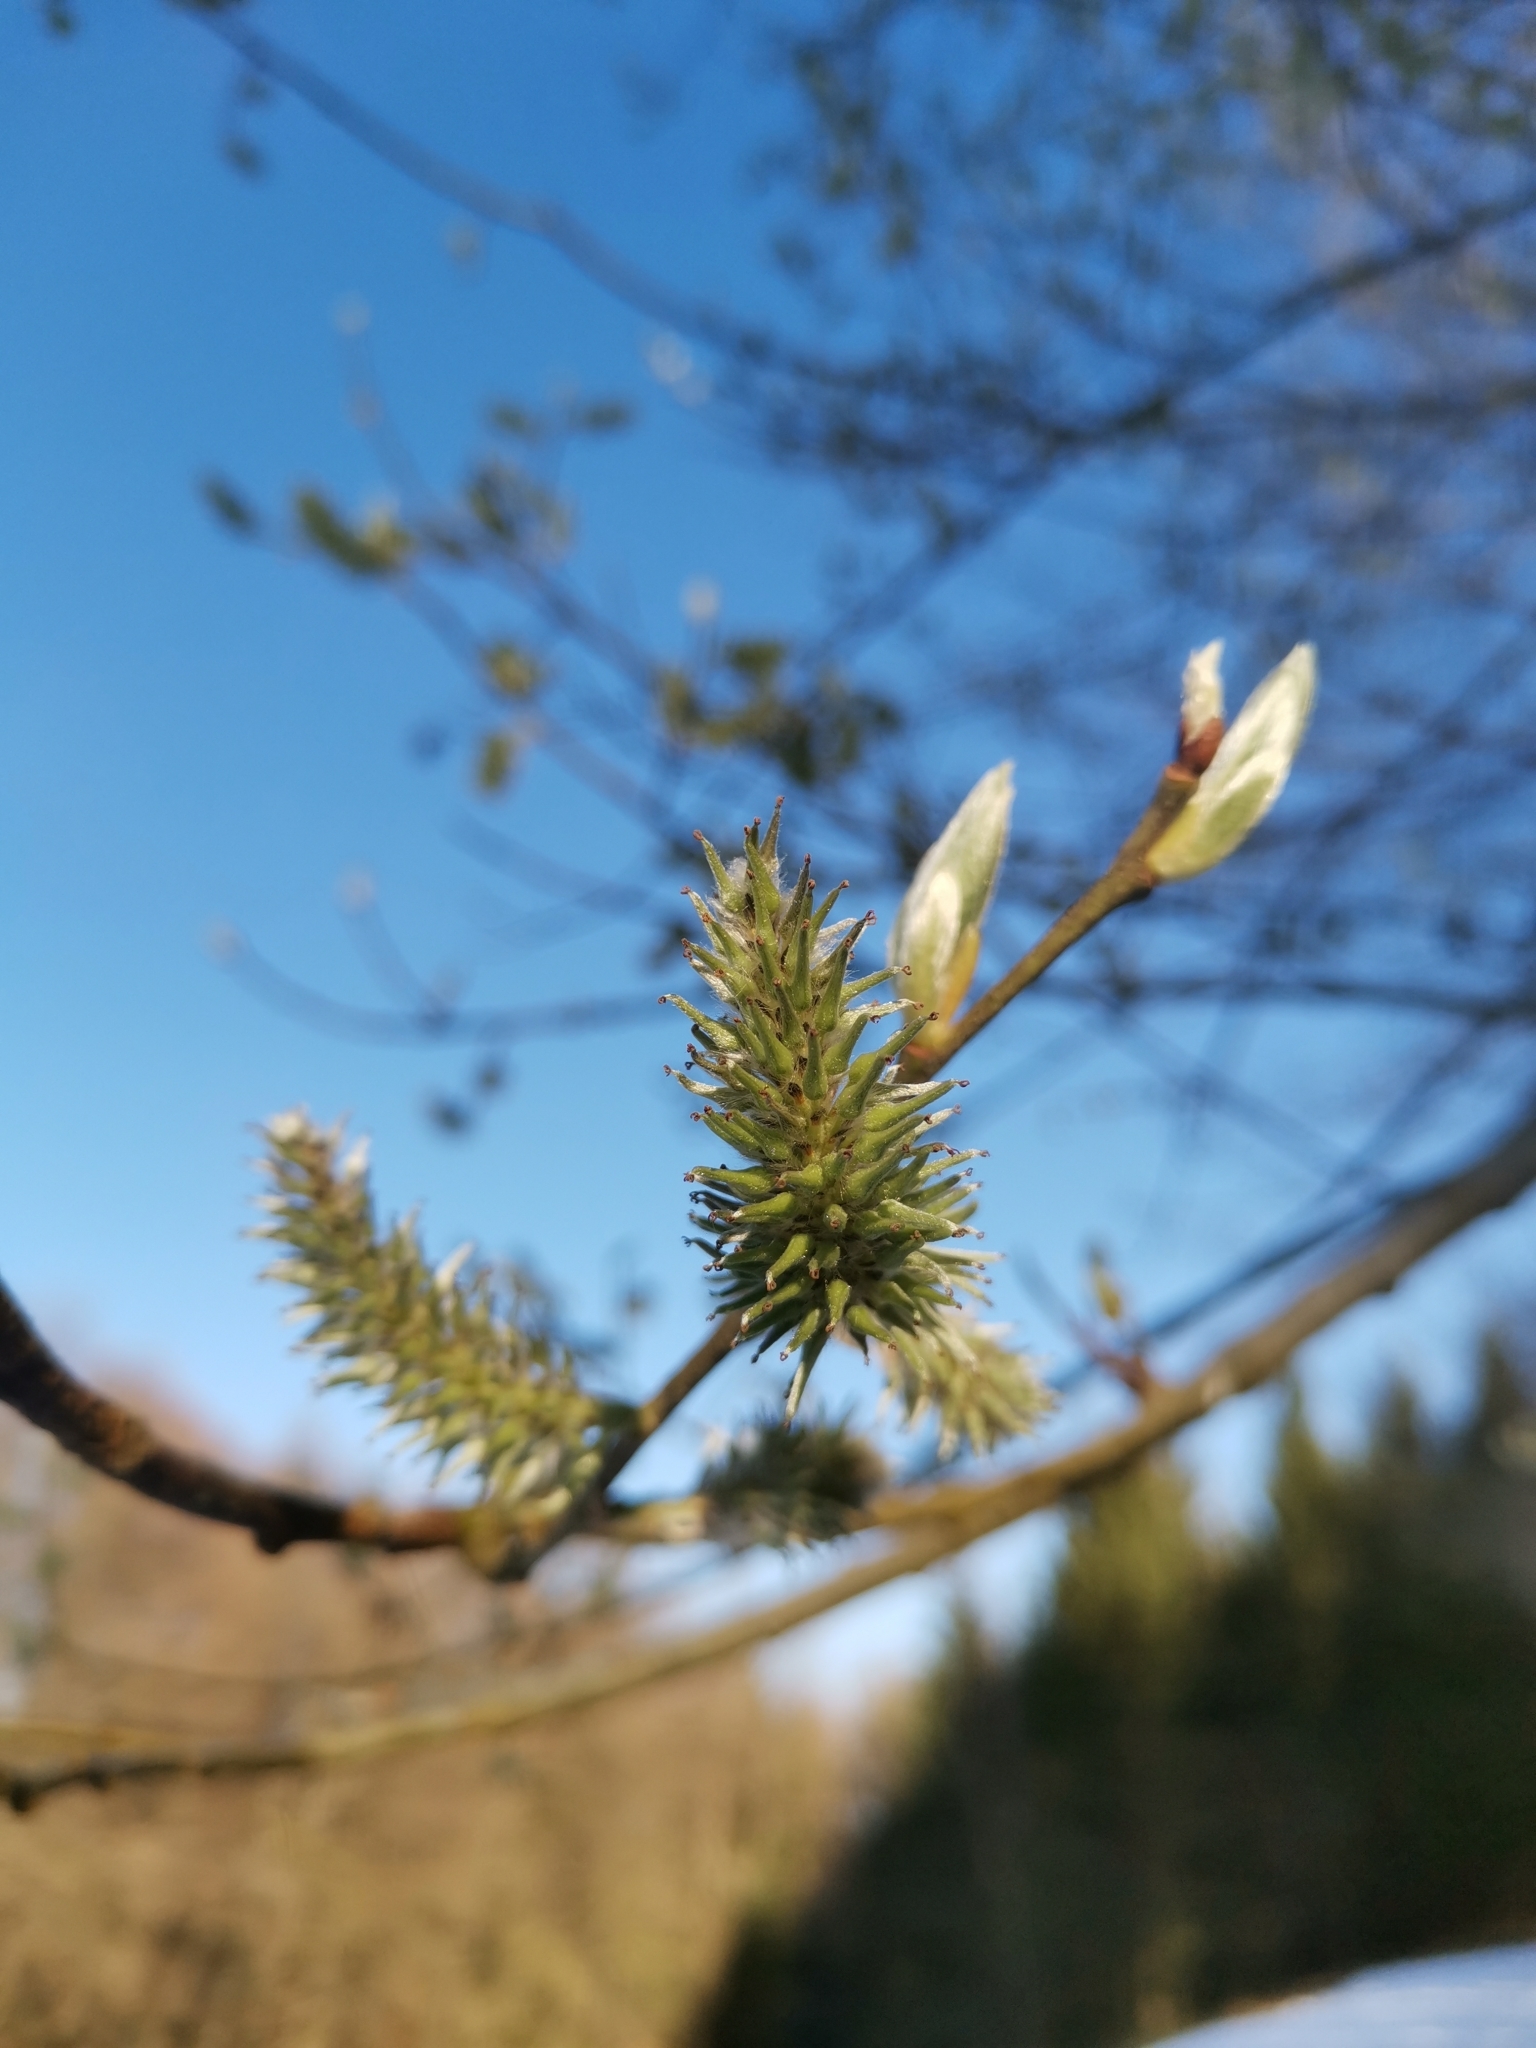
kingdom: Plantae
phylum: Tracheophyta
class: Magnoliopsida
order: Malpighiales
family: Salicaceae
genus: Salix
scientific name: Salix caprea
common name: Goat willow
